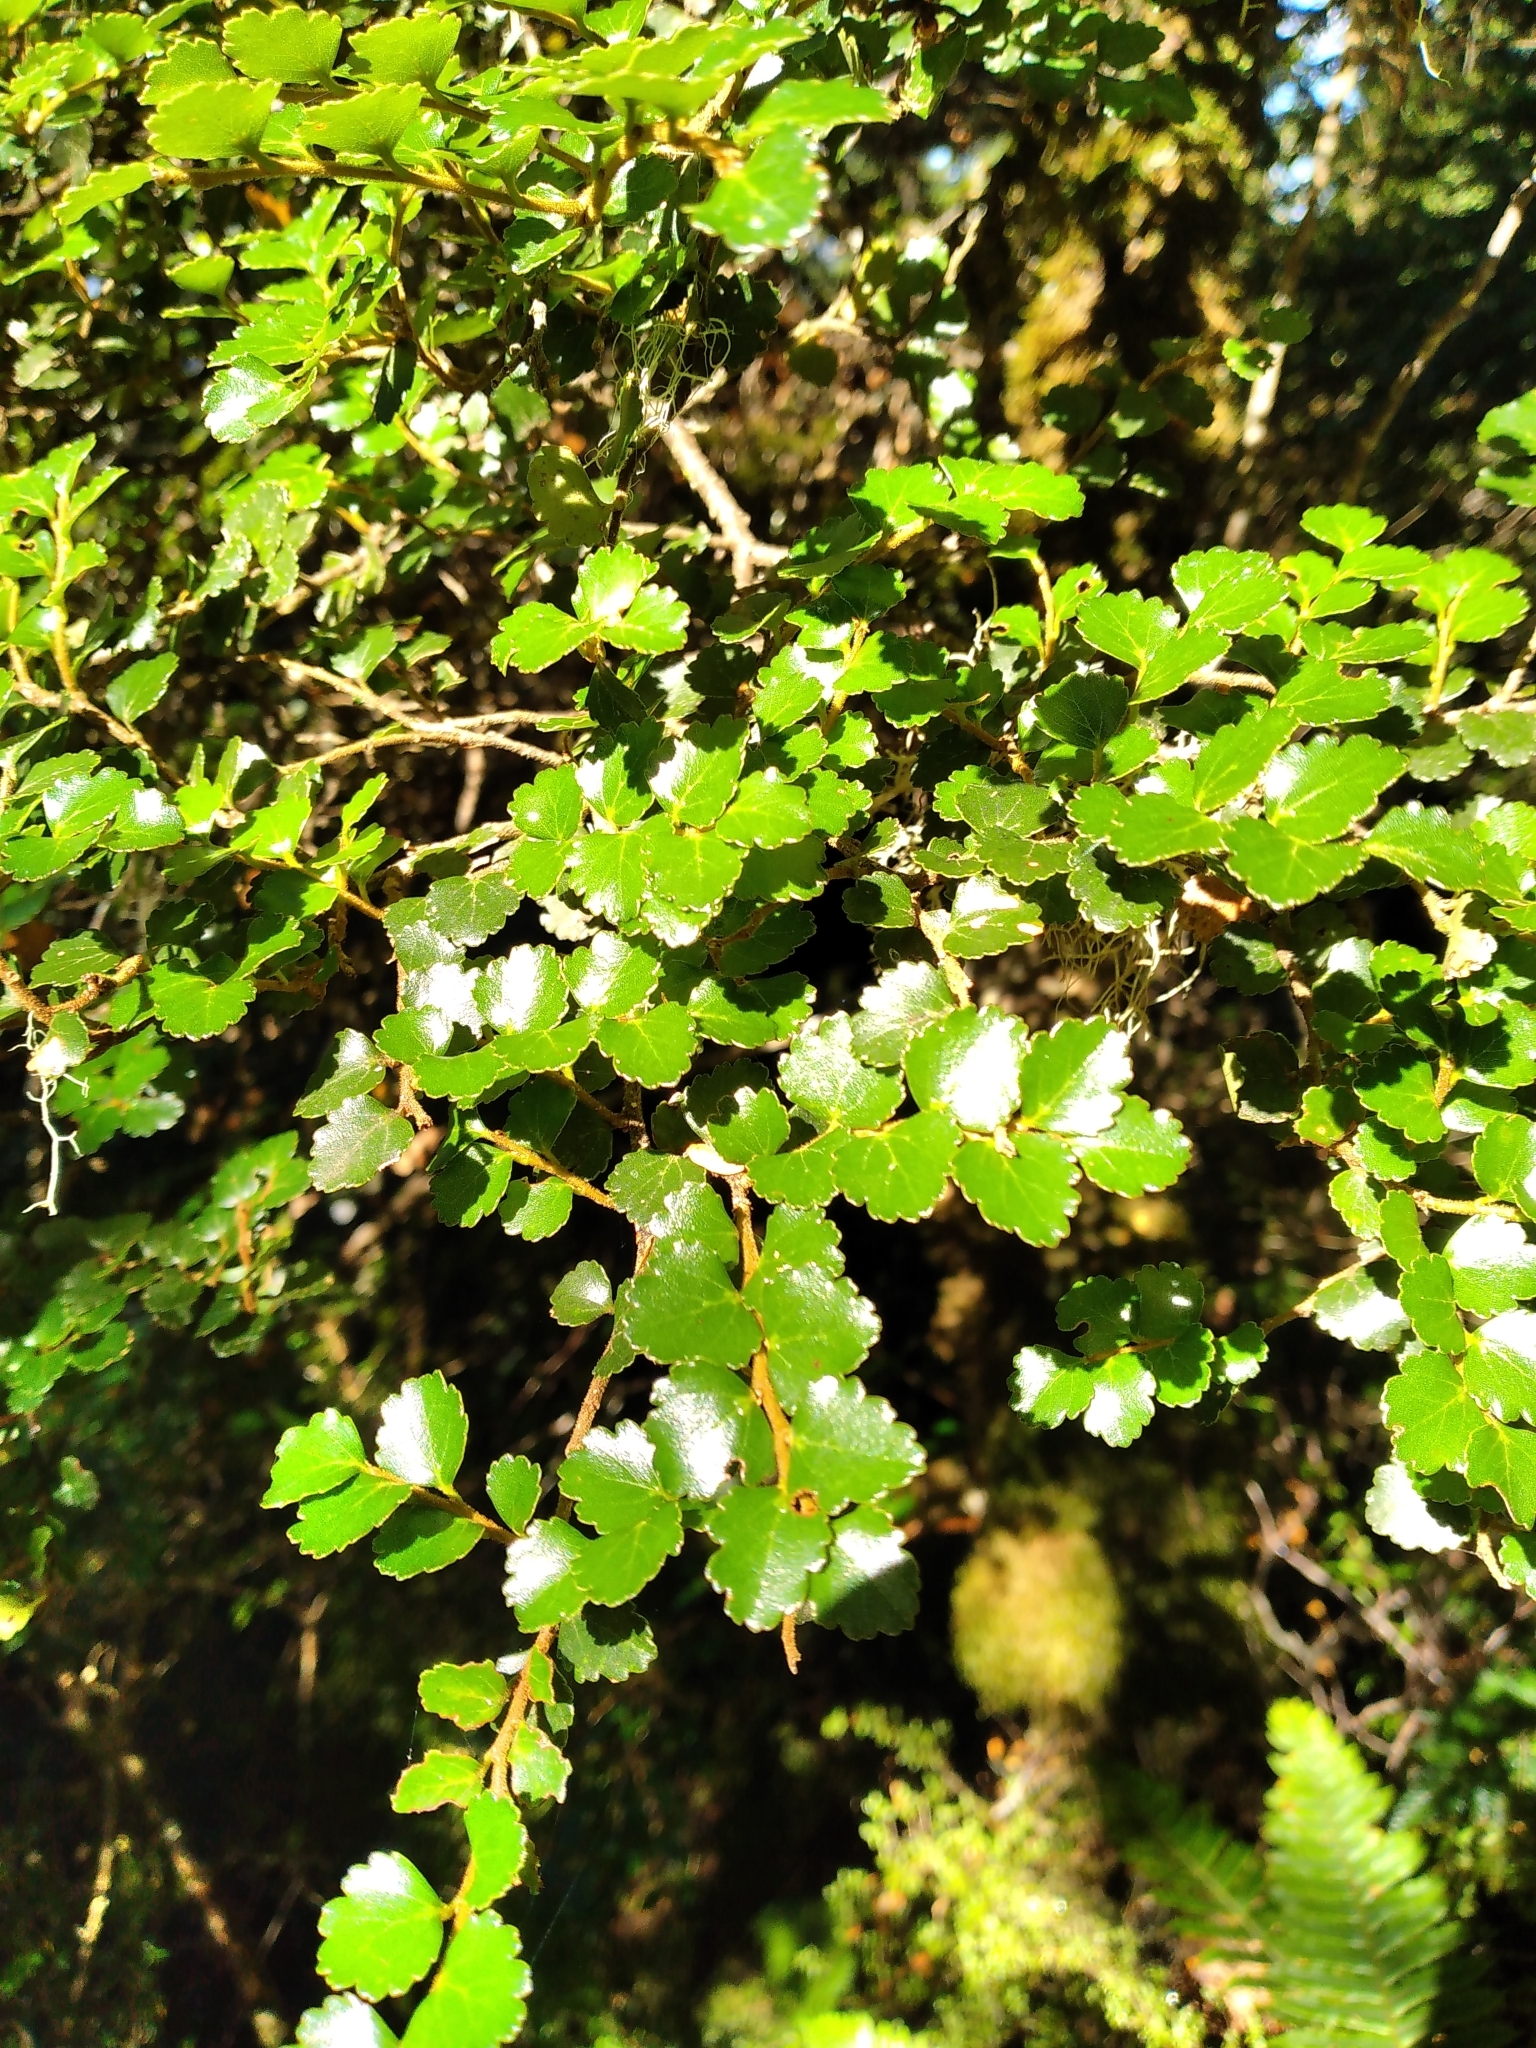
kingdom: Plantae
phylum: Tracheophyta
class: Magnoliopsida
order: Fagales
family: Nothofagaceae
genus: Nothofagus
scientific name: Nothofagus menziesii
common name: Silver beech
